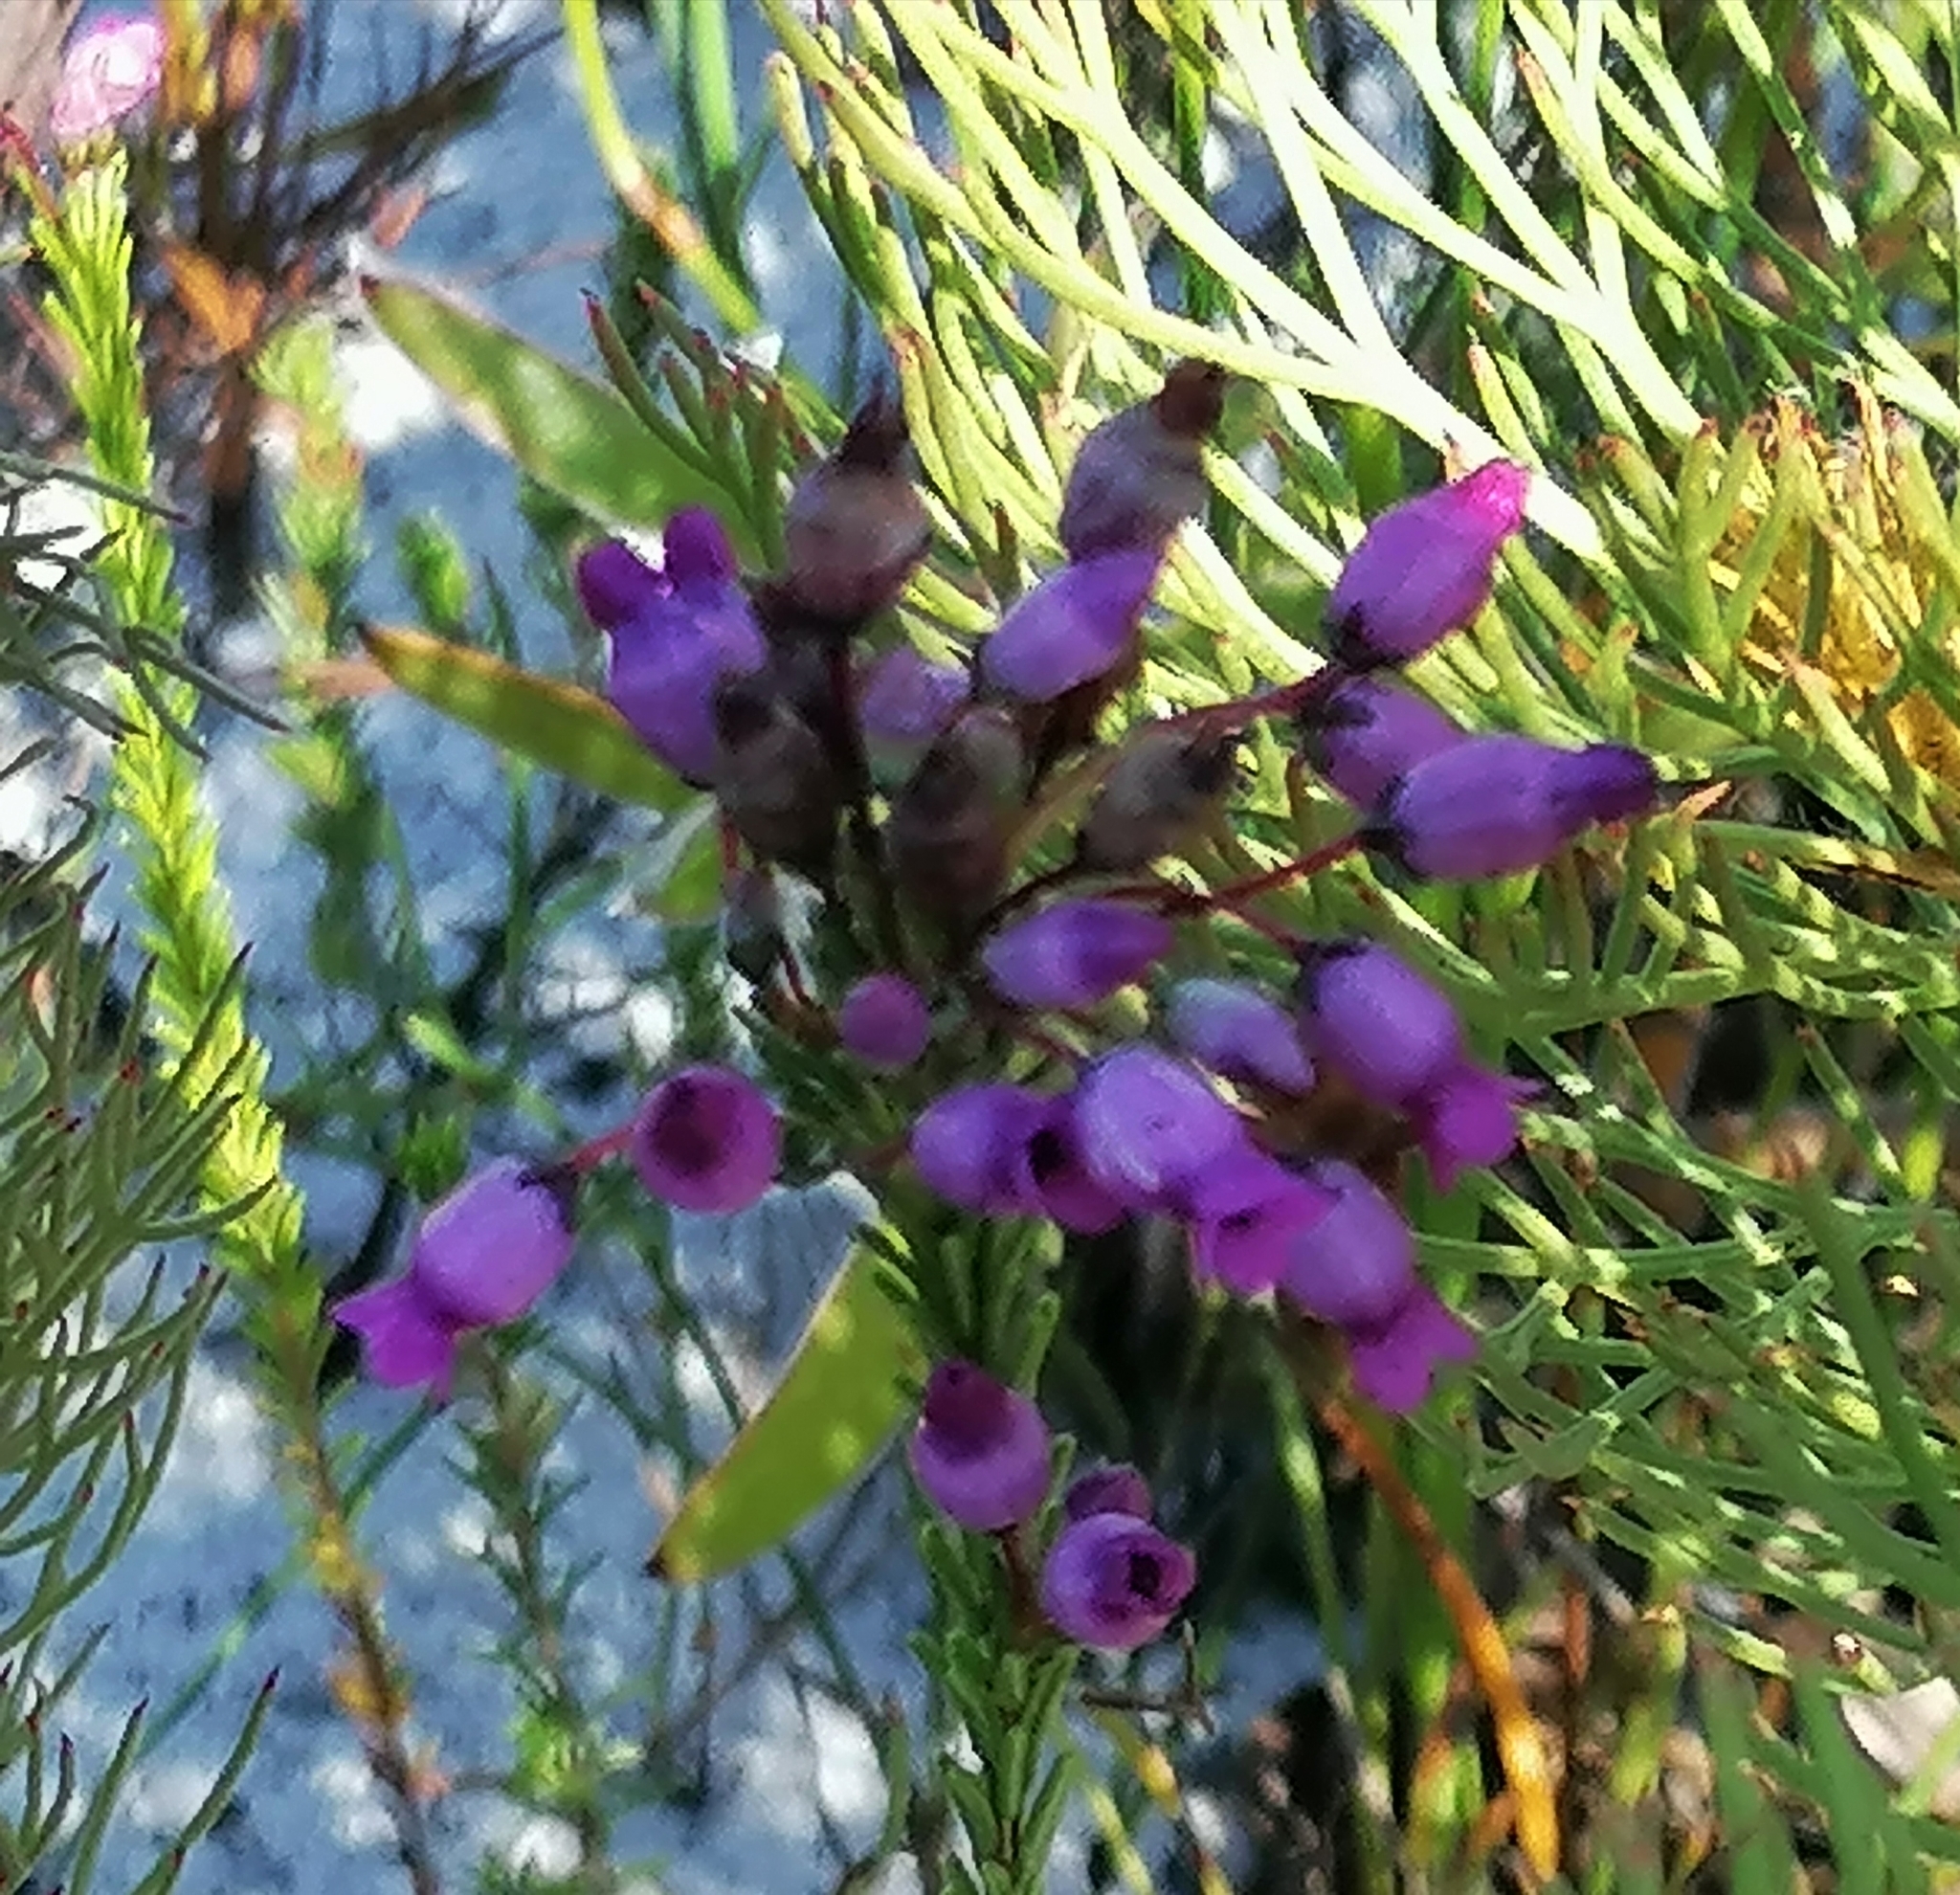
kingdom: Plantae
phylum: Tracheophyta
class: Magnoliopsida
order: Ericales
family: Ericaceae
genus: Erica
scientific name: Erica obliqua
